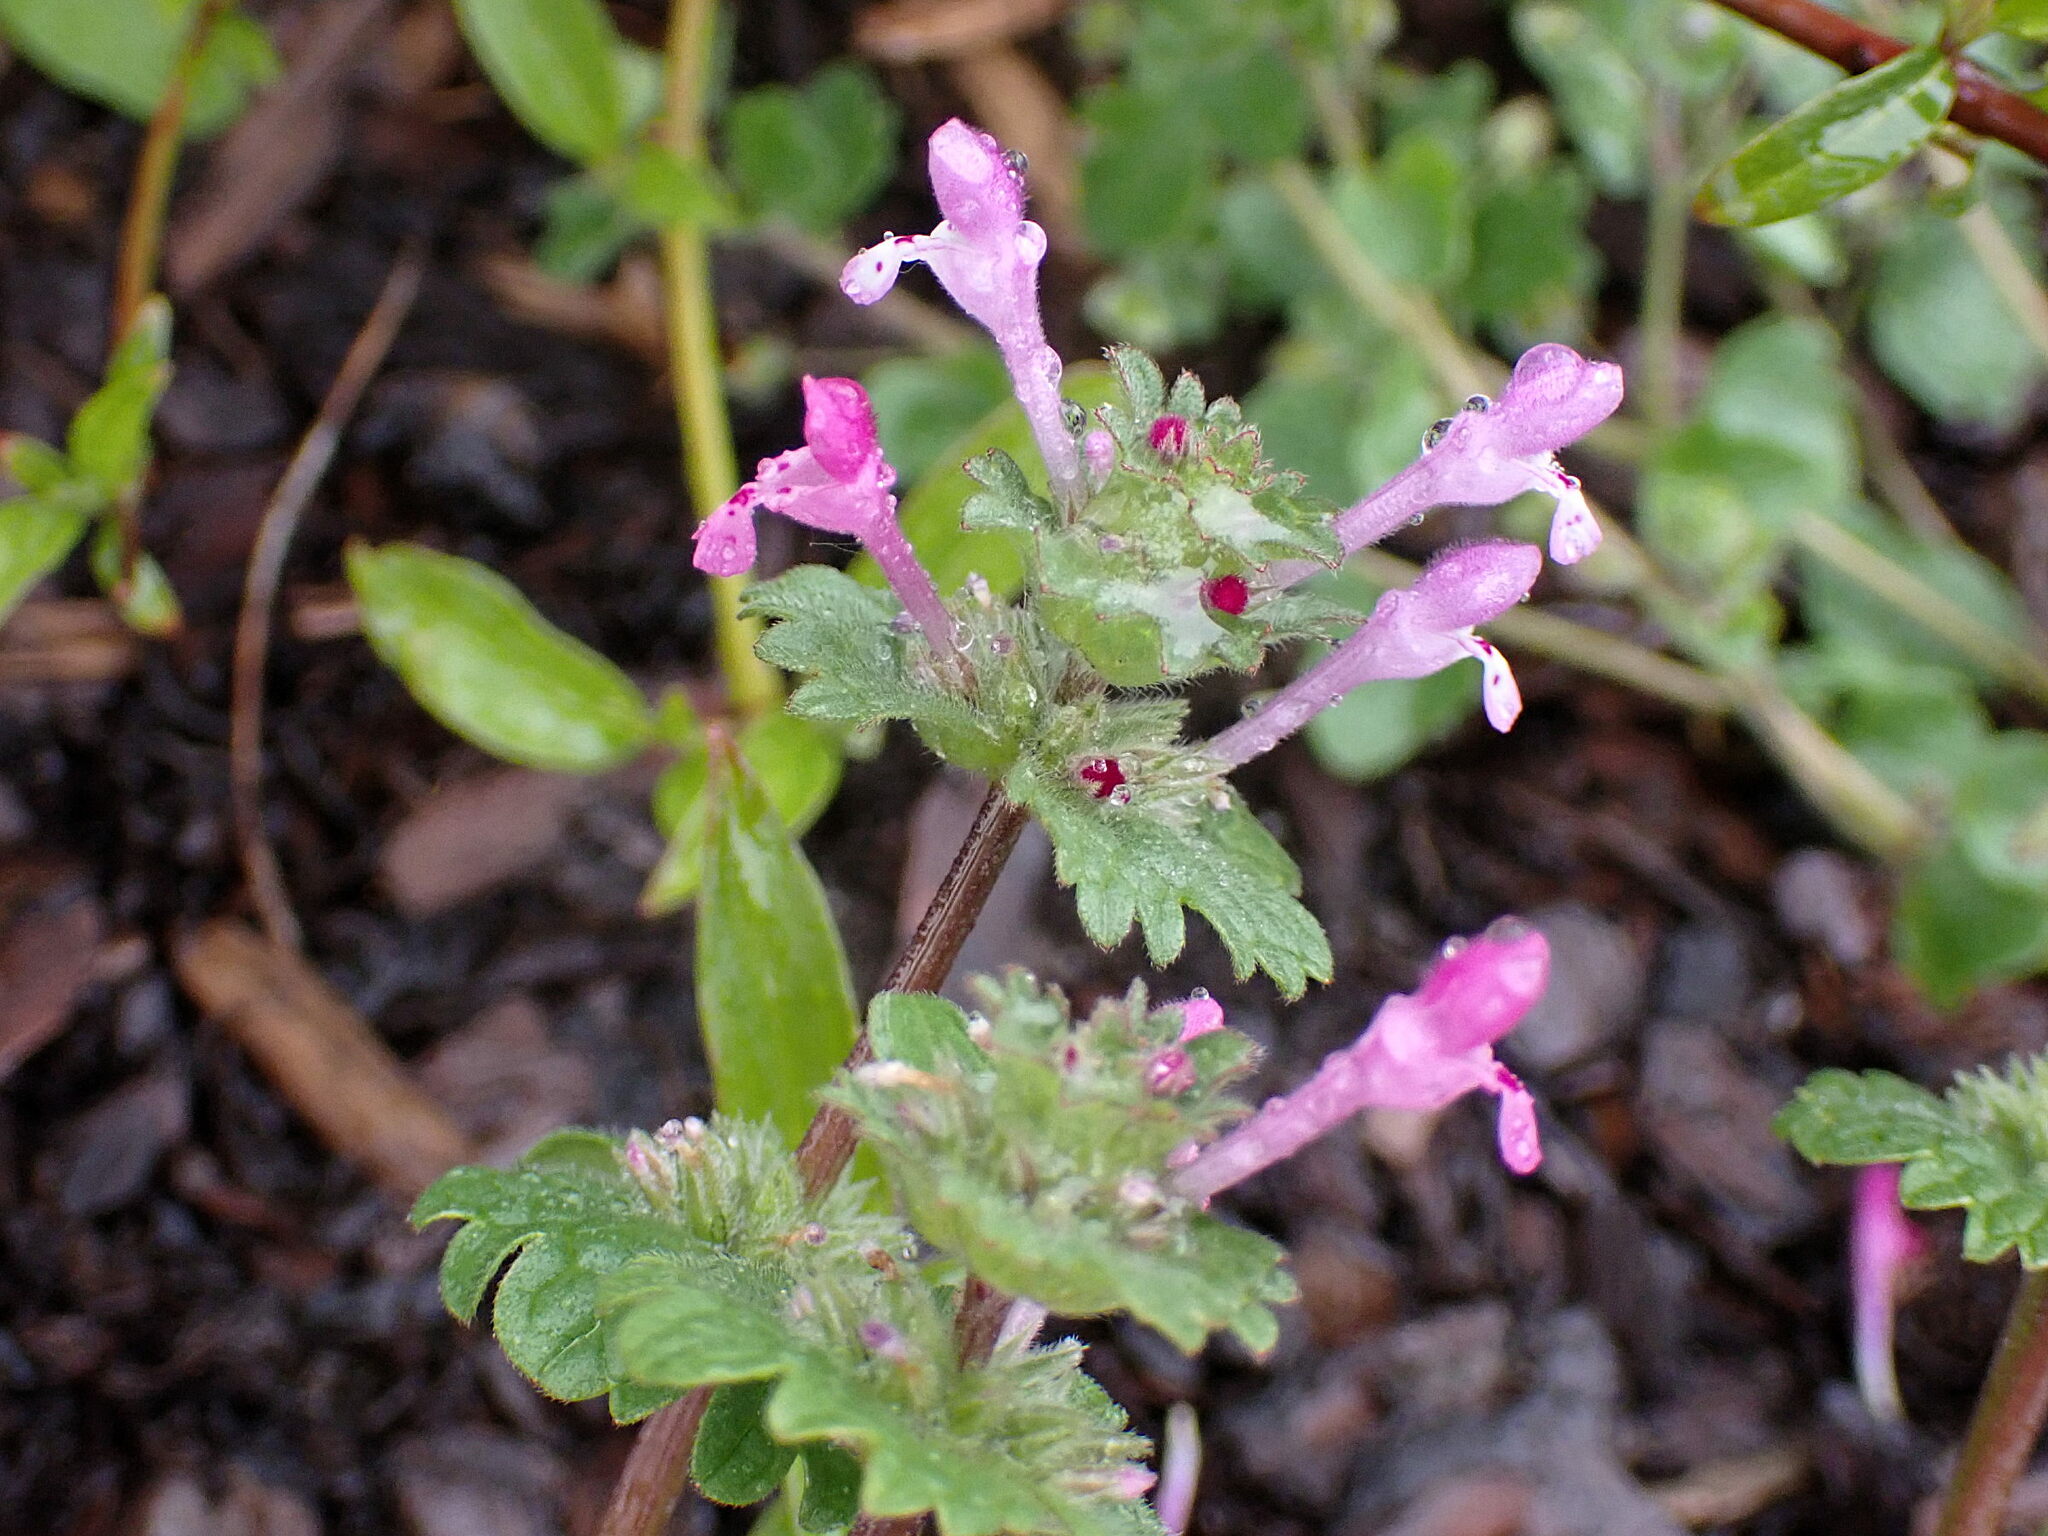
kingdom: Plantae
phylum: Tracheophyta
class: Magnoliopsida
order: Lamiales
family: Lamiaceae
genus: Lamium
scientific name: Lamium amplexicaule
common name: Henbit dead-nettle
